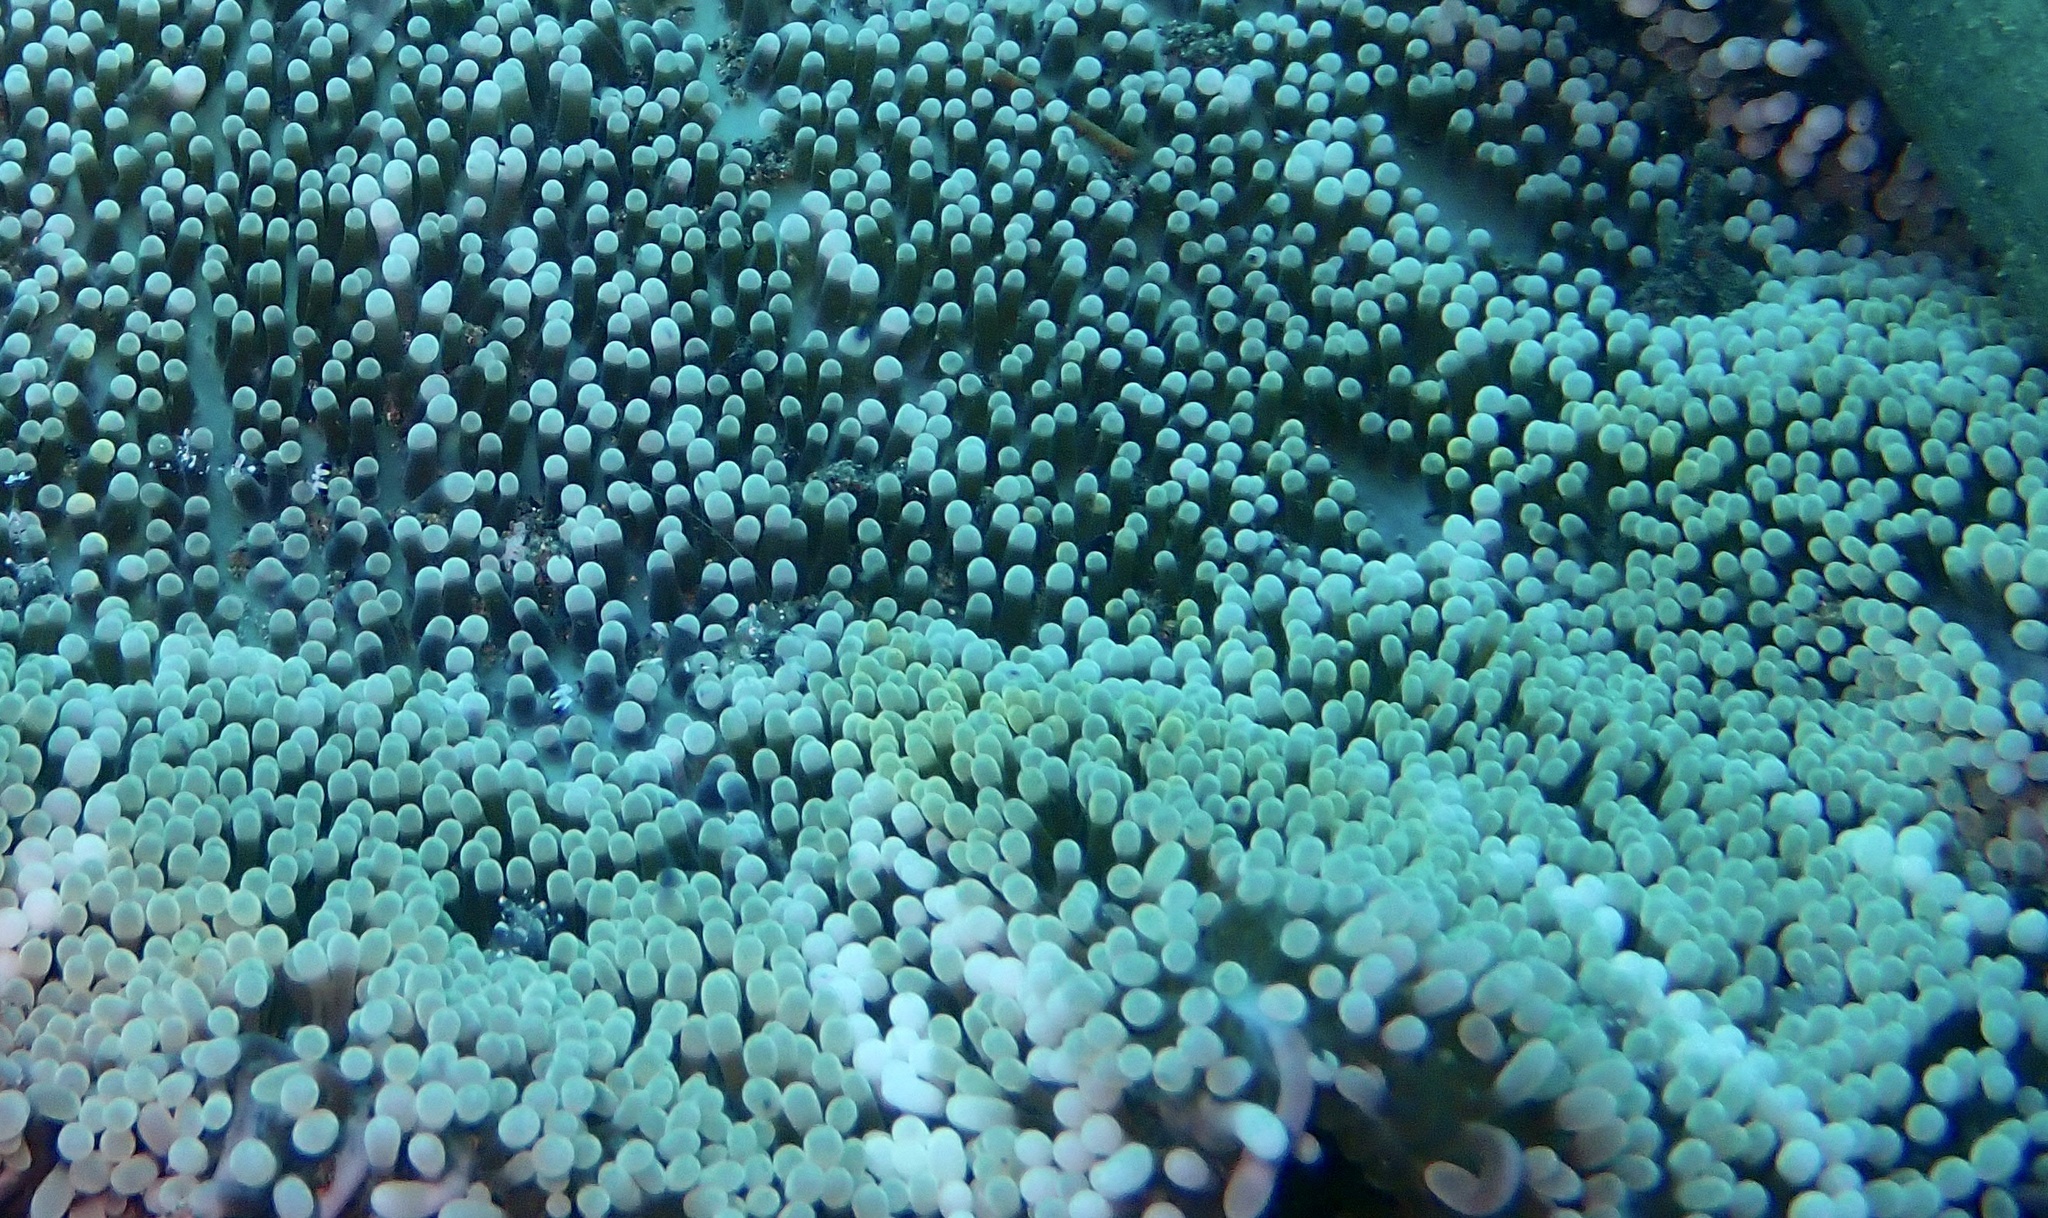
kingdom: Animalia
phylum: Cnidaria
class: Anthozoa
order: Actiniaria
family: Stichodactylidae
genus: Stichodactyla
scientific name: Stichodactyla haddoni
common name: Haddon's sea anemone
